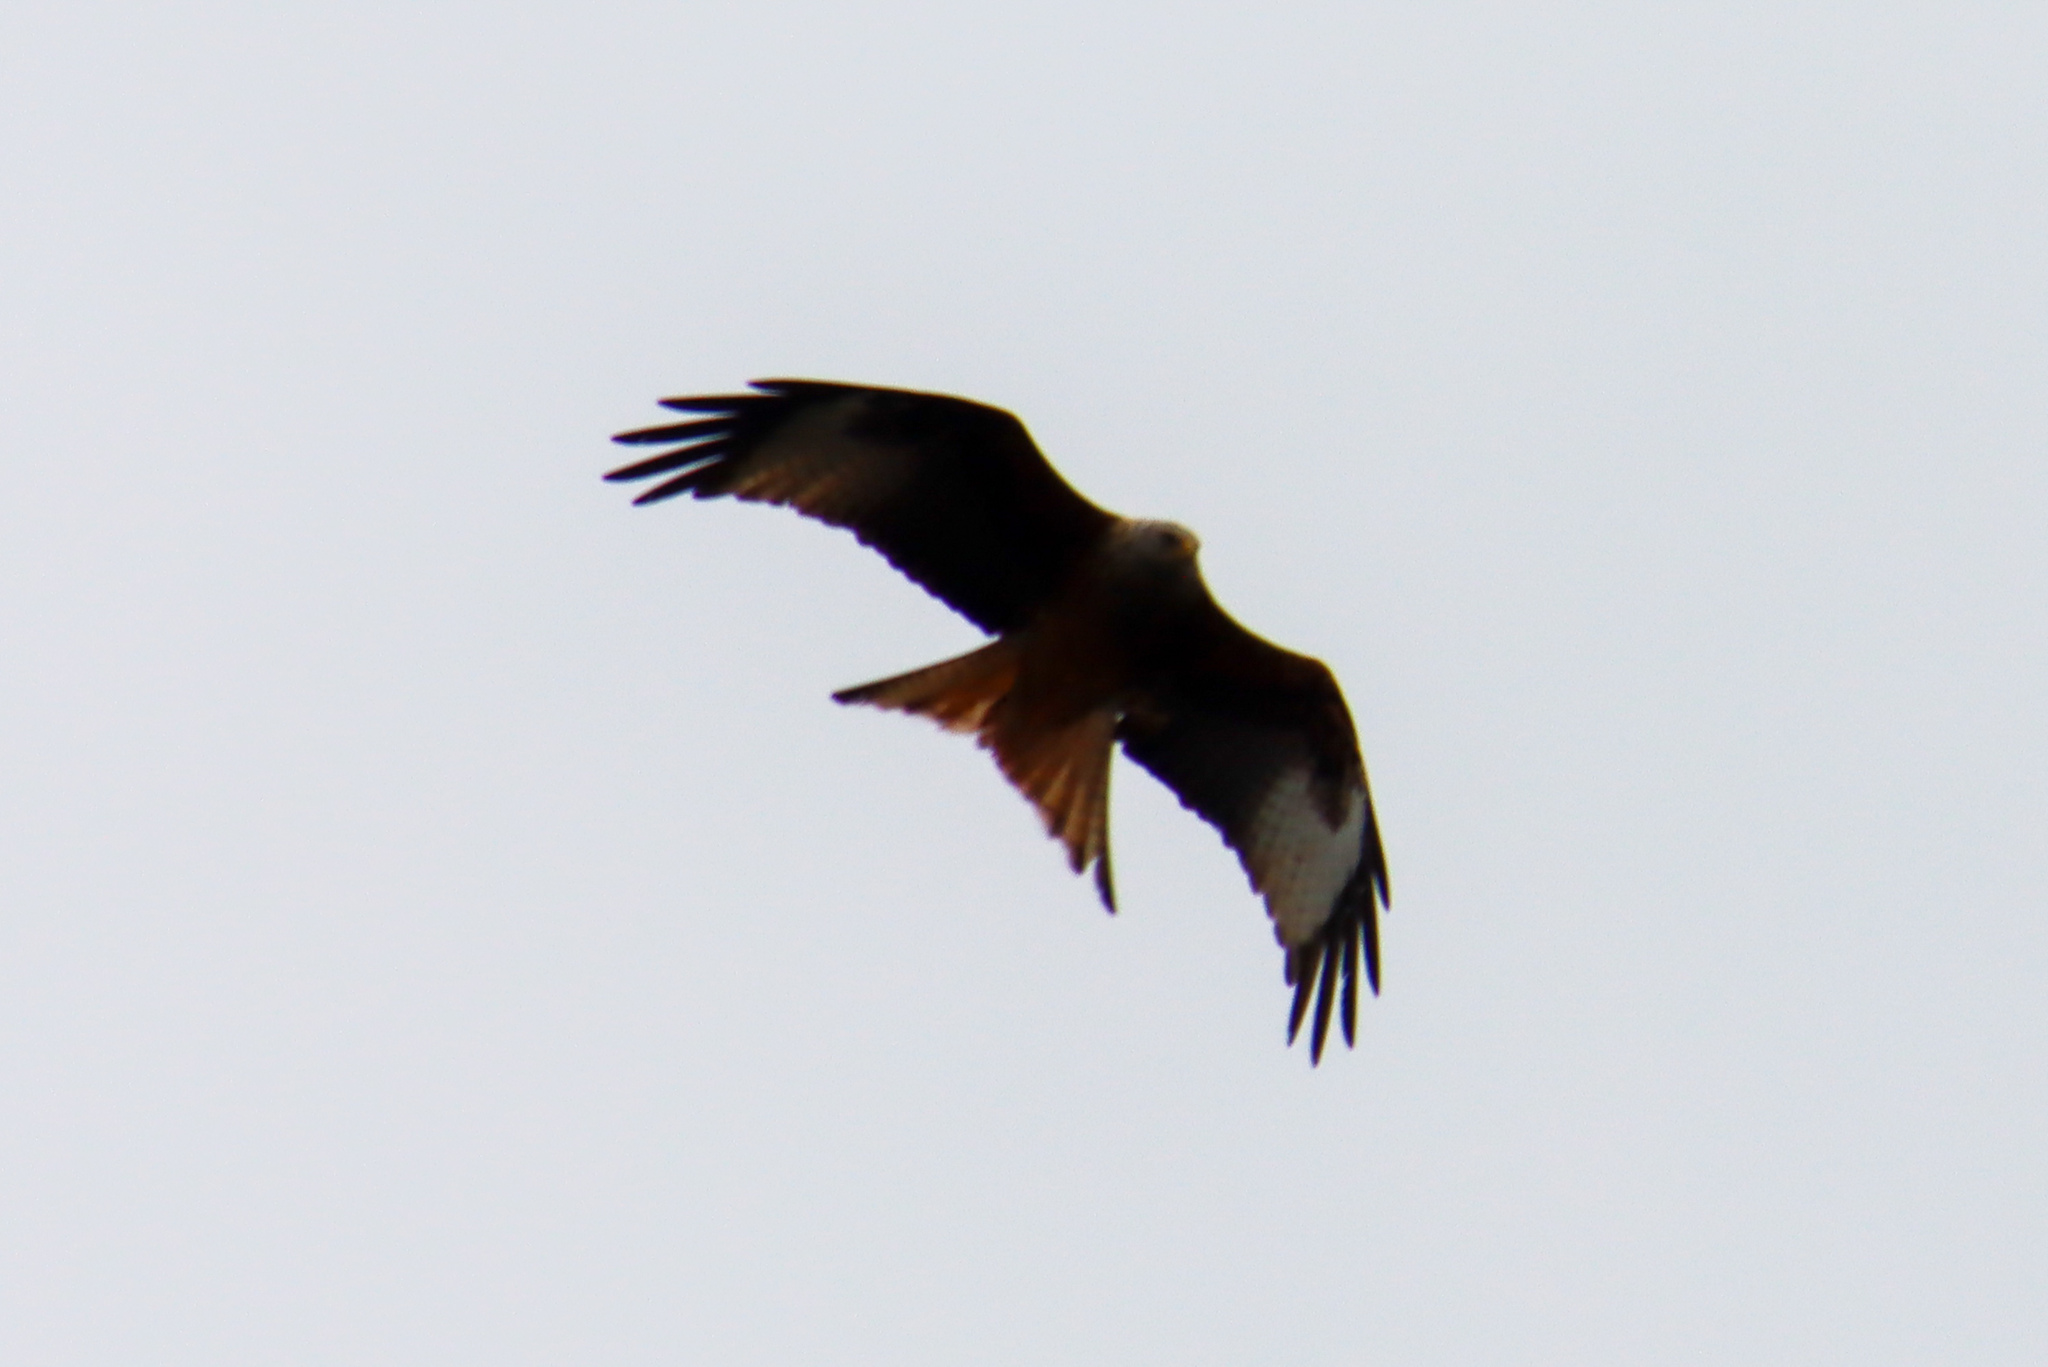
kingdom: Animalia
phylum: Chordata
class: Aves
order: Accipitriformes
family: Accipitridae
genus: Milvus
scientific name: Milvus milvus
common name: Red kite
